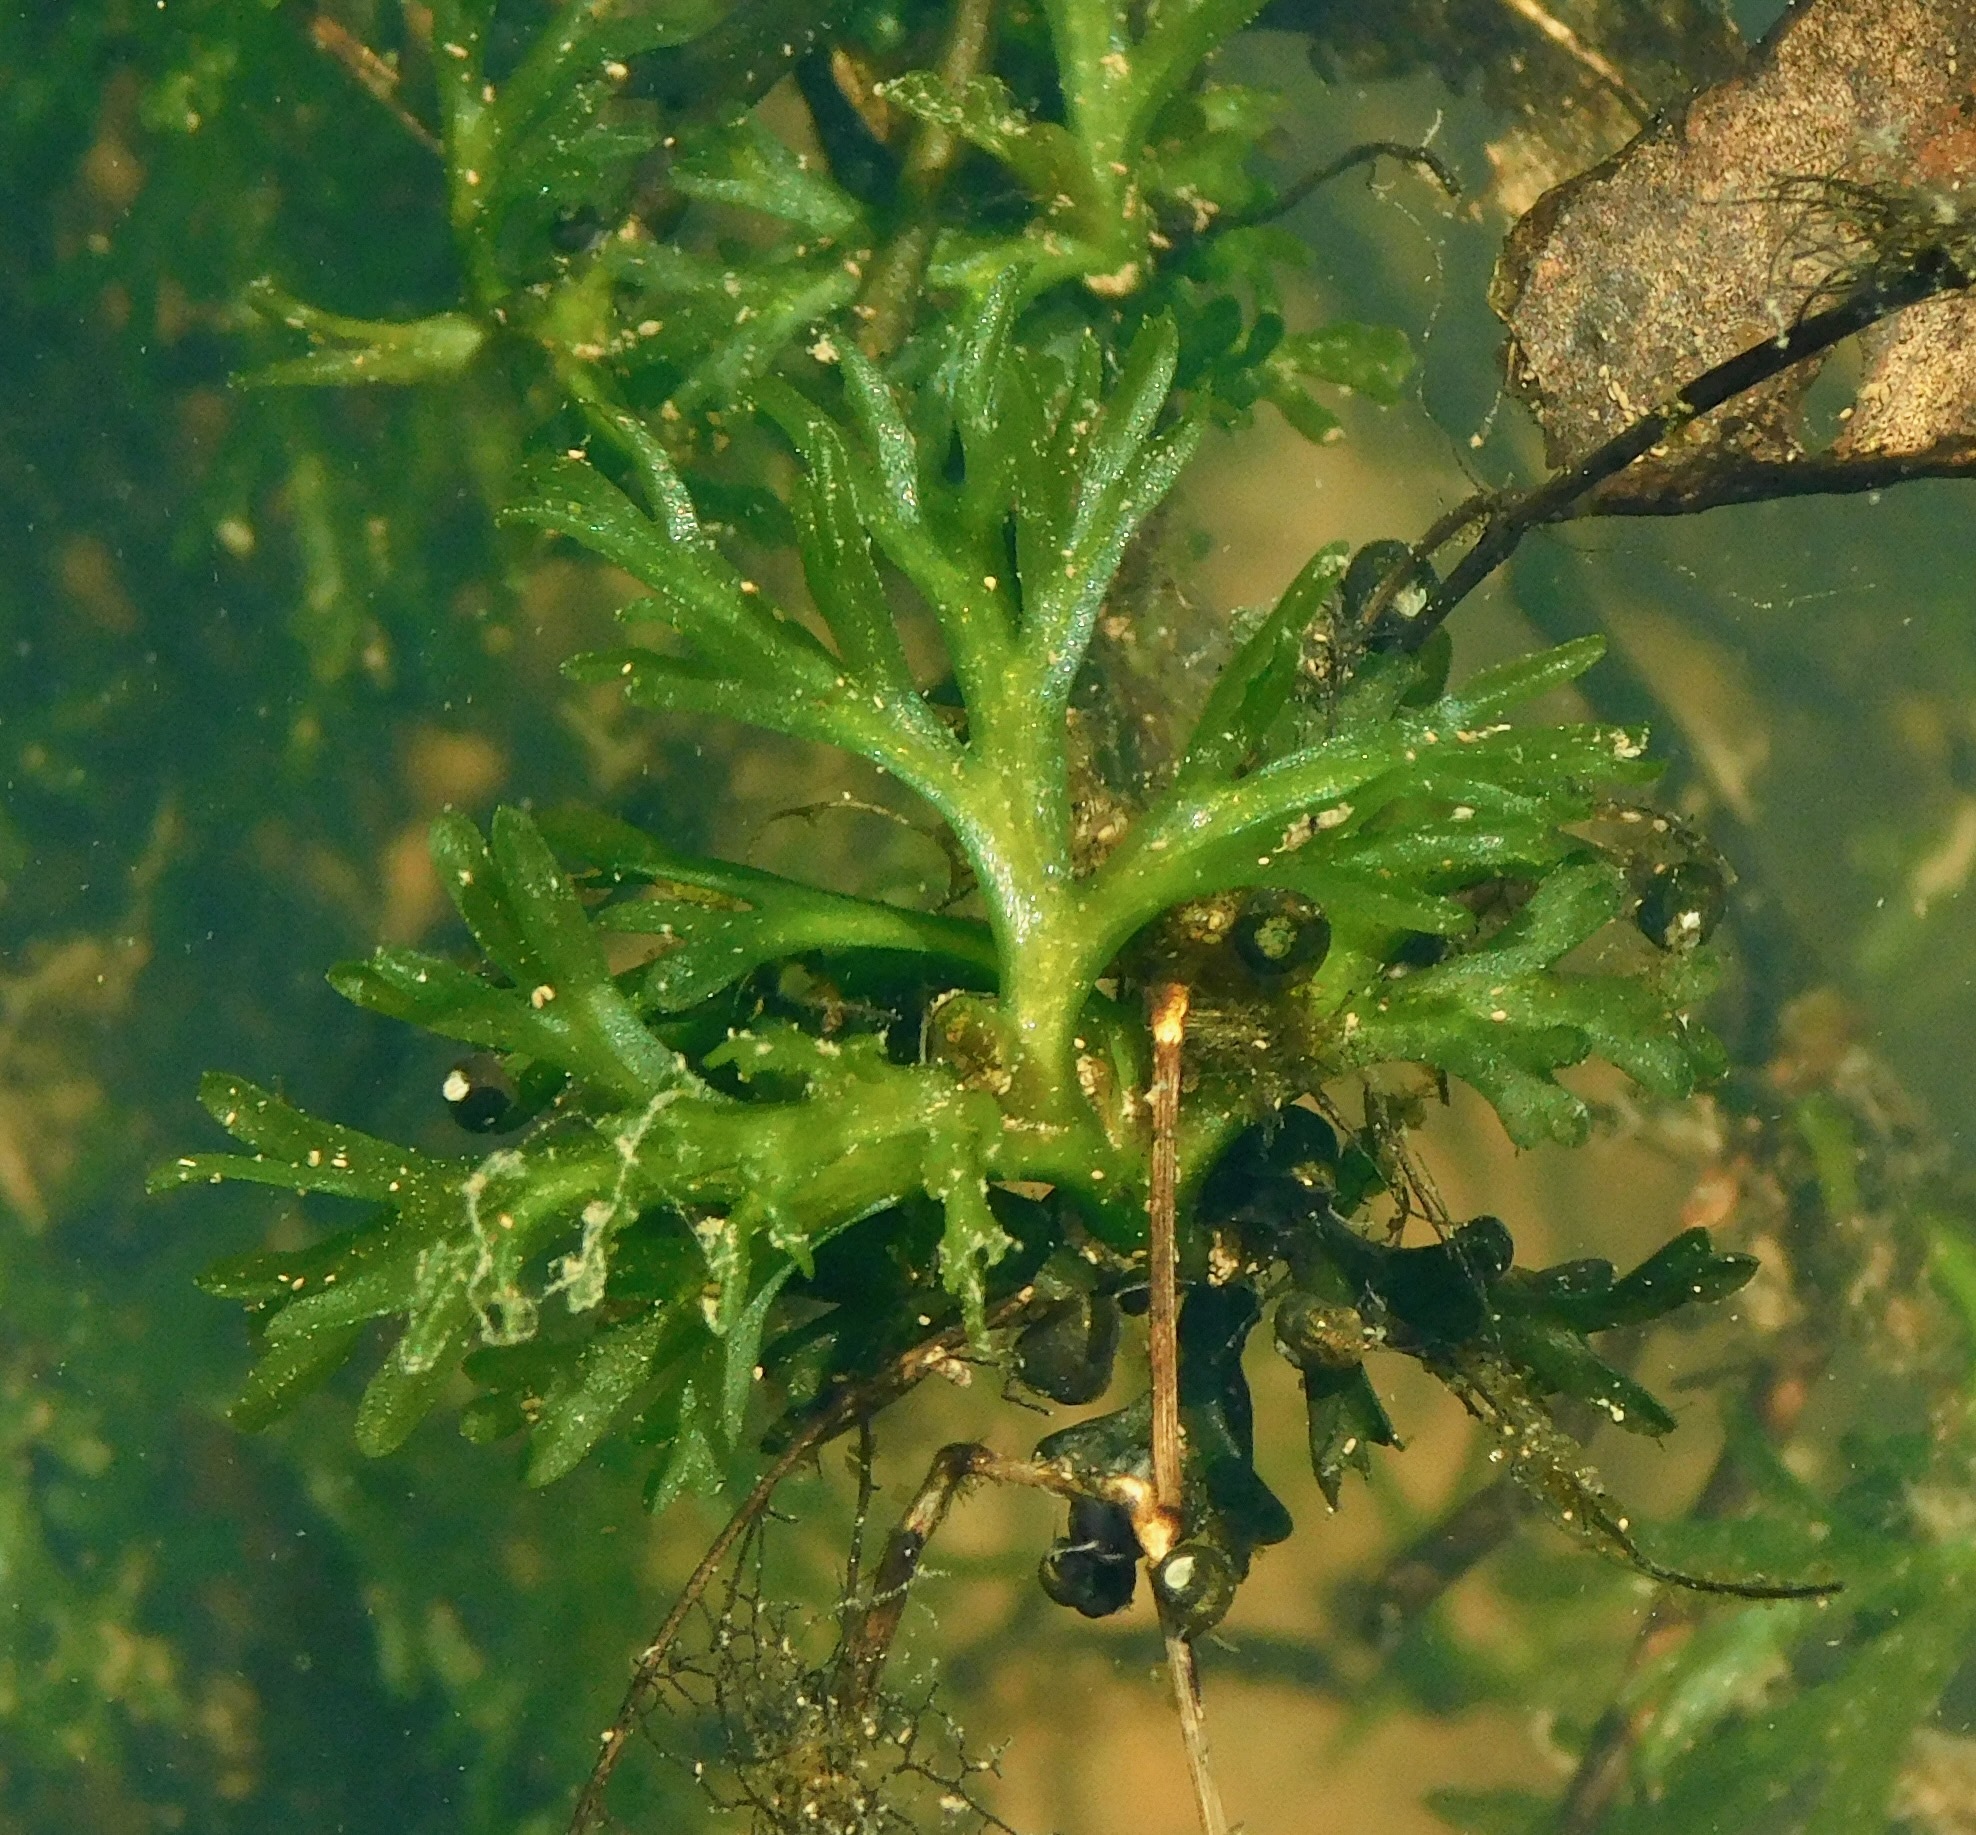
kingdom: Plantae
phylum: Tracheophyta
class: Magnoliopsida
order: Malpighiales
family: Podostemaceae
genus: Podostemum
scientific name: Podostemum ceratophyllum
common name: Horn-leaved riverweed
